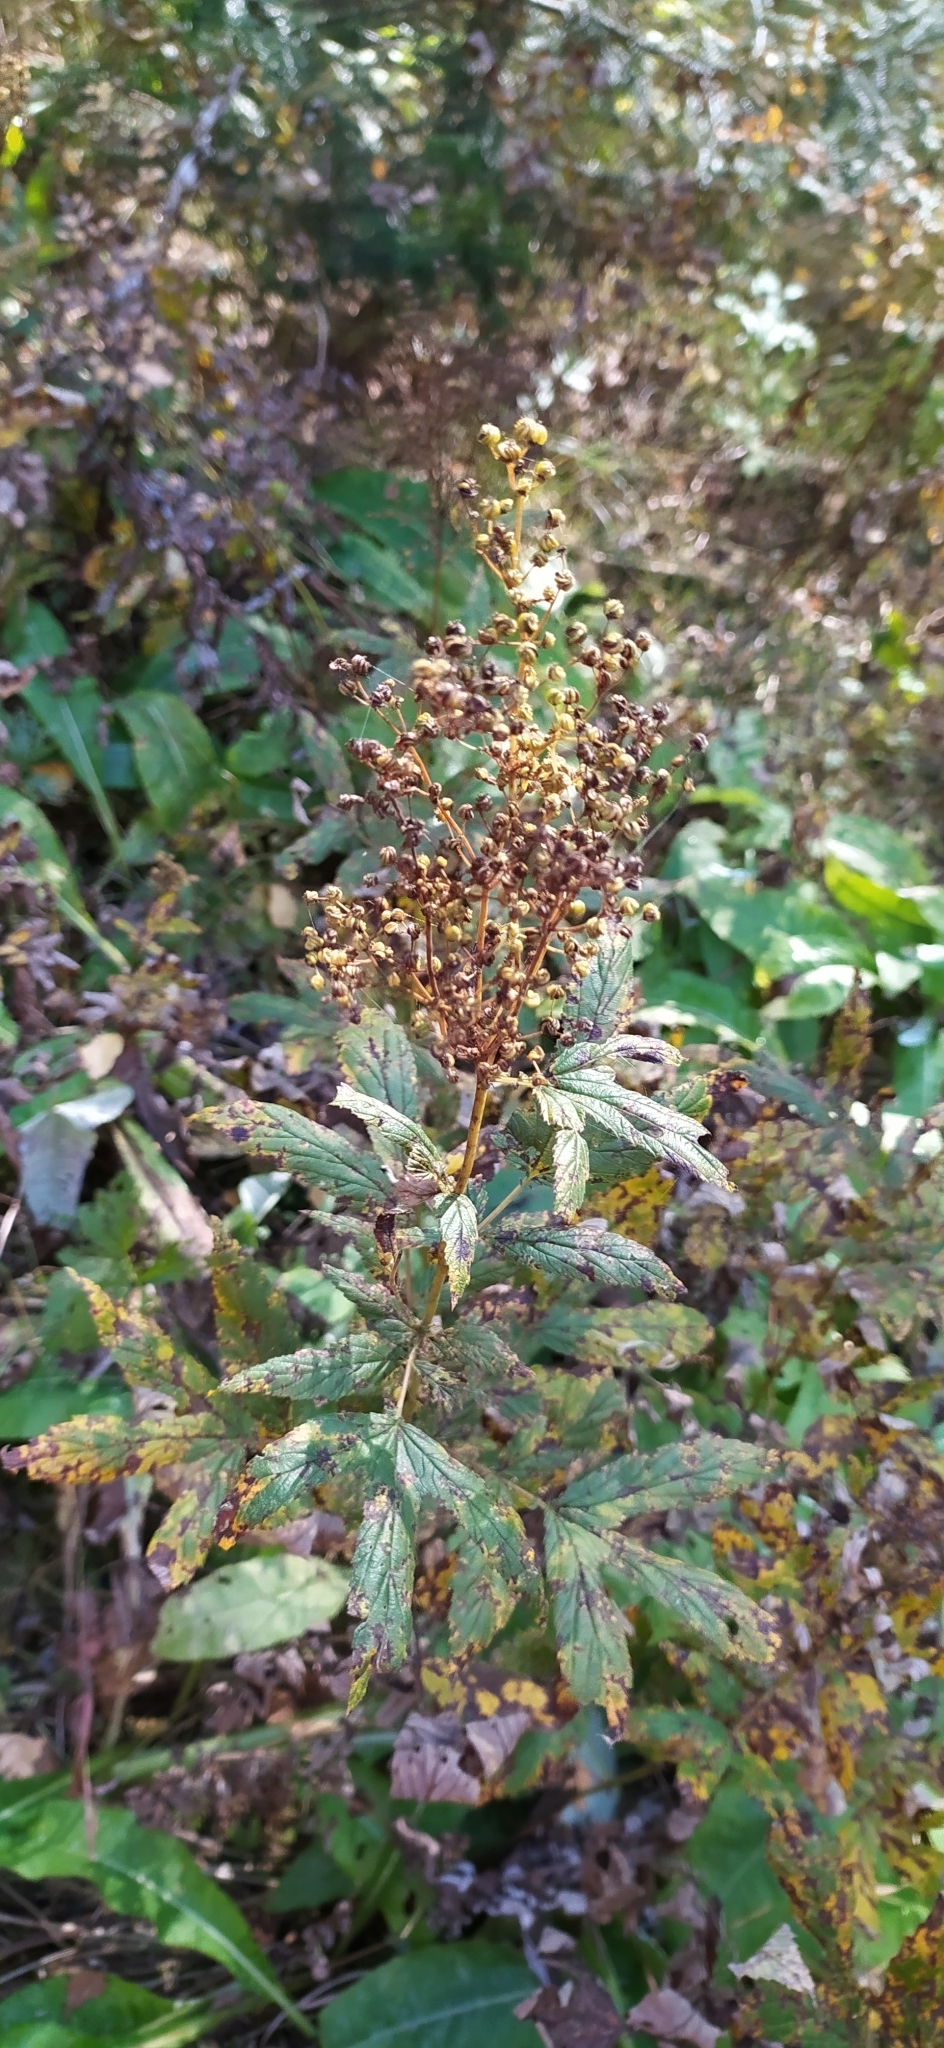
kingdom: Plantae
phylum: Tracheophyta
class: Magnoliopsida
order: Rosales
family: Rosaceae
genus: Filipendula
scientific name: Filipendula ulmaria
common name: Meadowsweet
